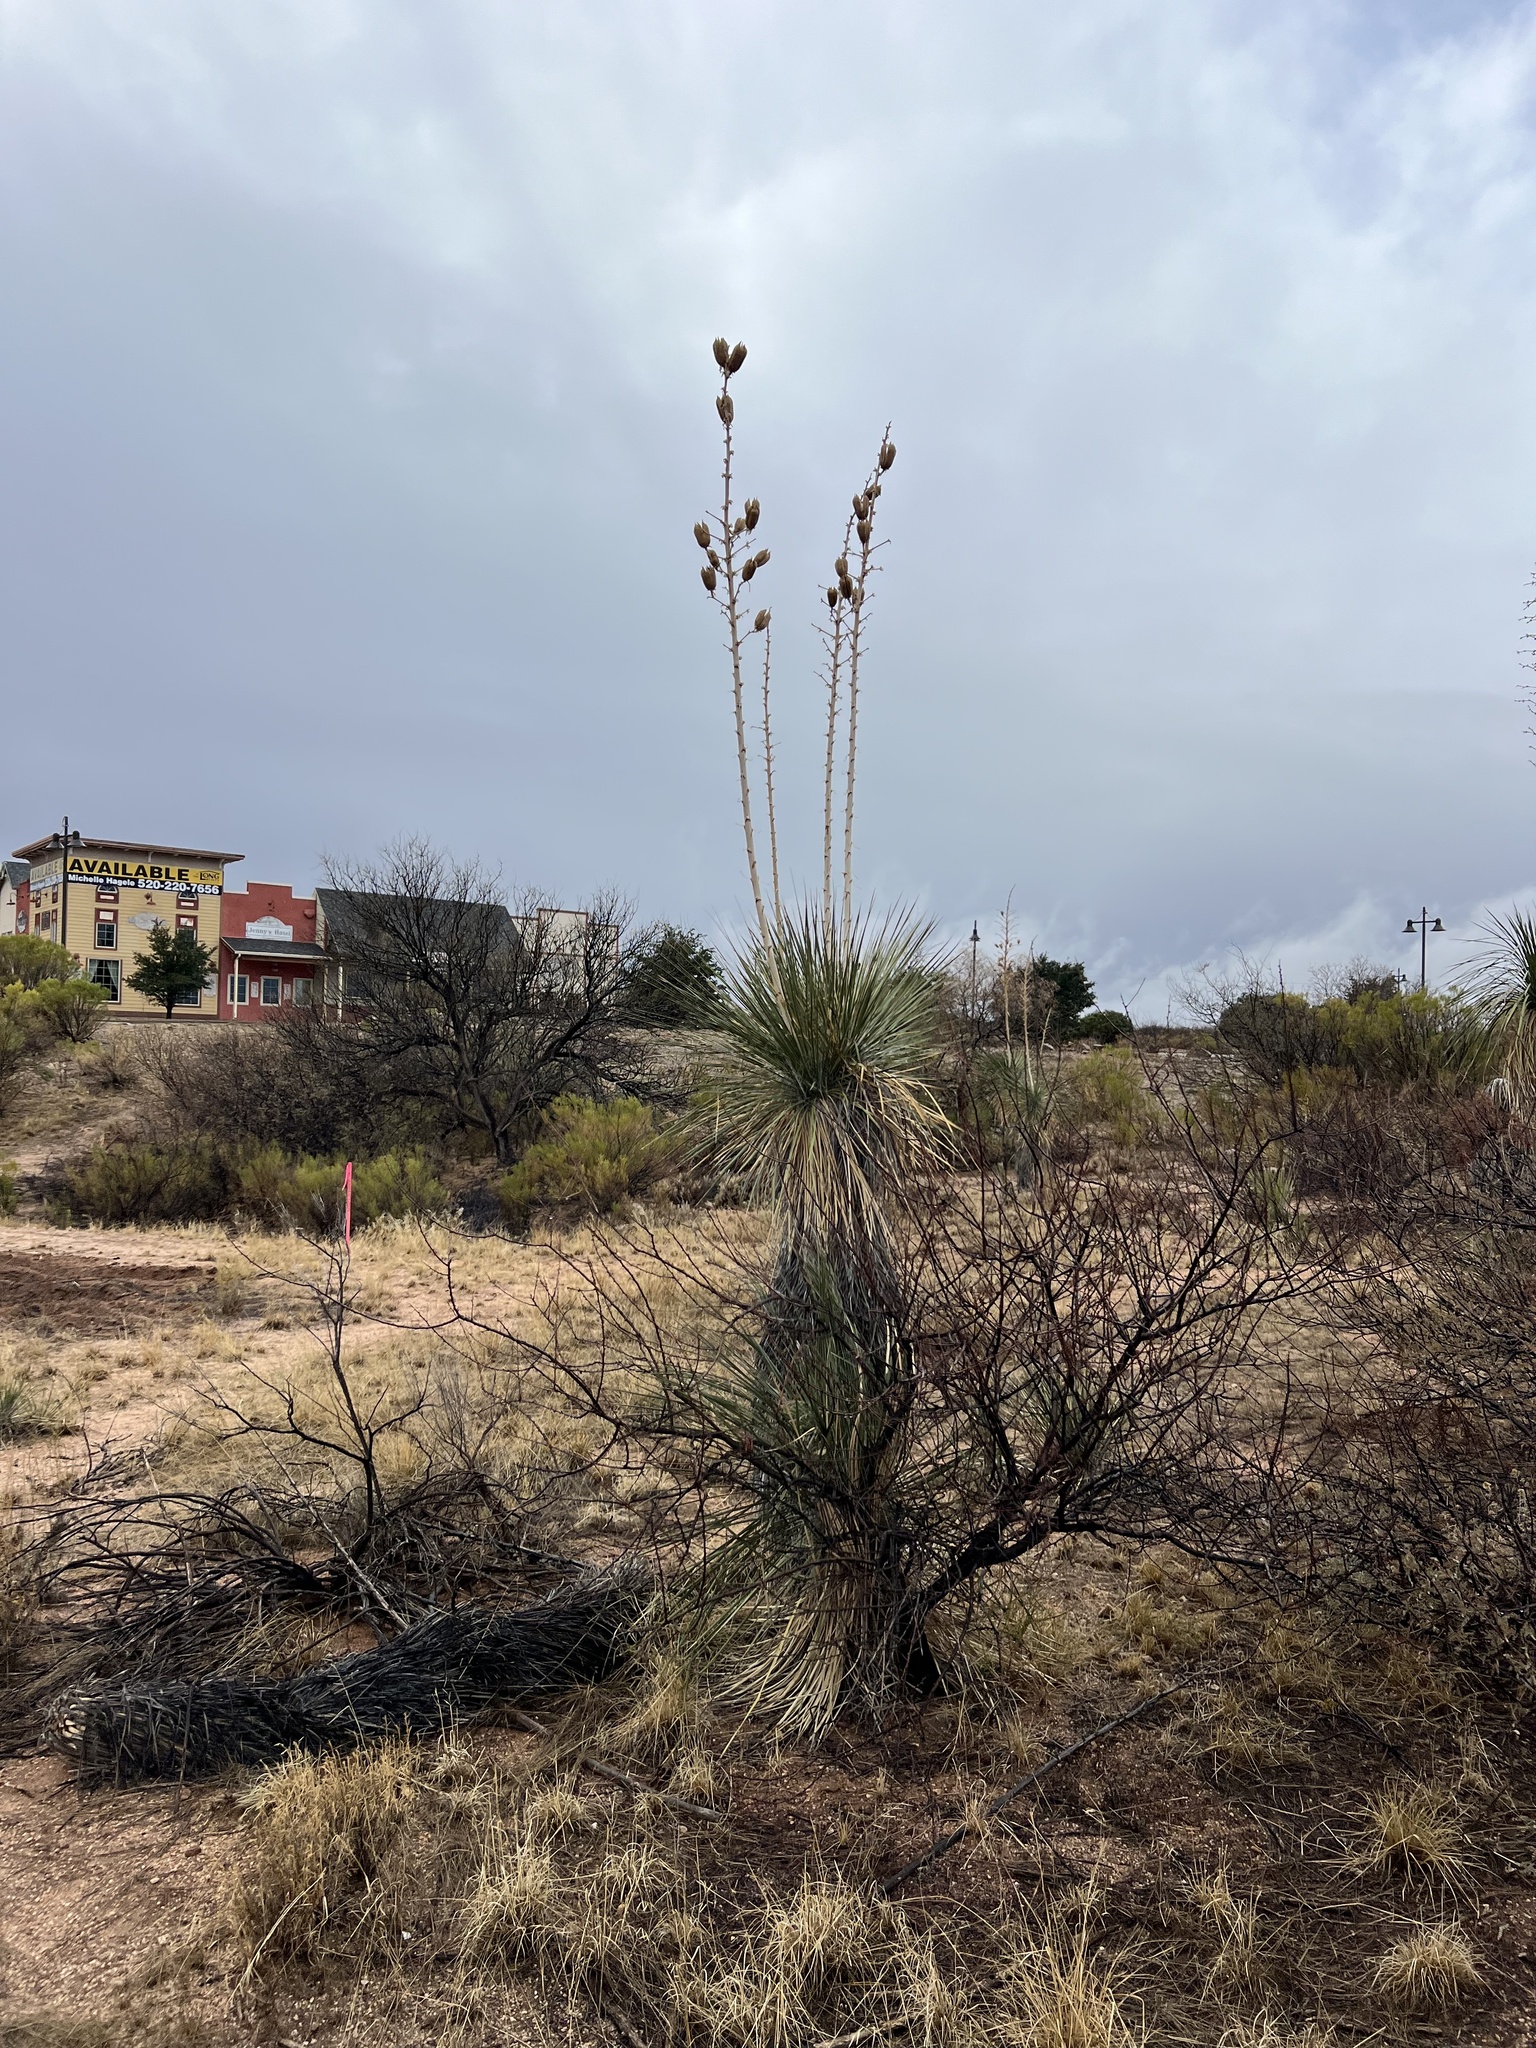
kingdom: Plantae
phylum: Tracheophyta
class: Liliopsida
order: Asparagales
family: Asparagaceae
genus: Yucca
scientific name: Yucca elata
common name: Palmella
